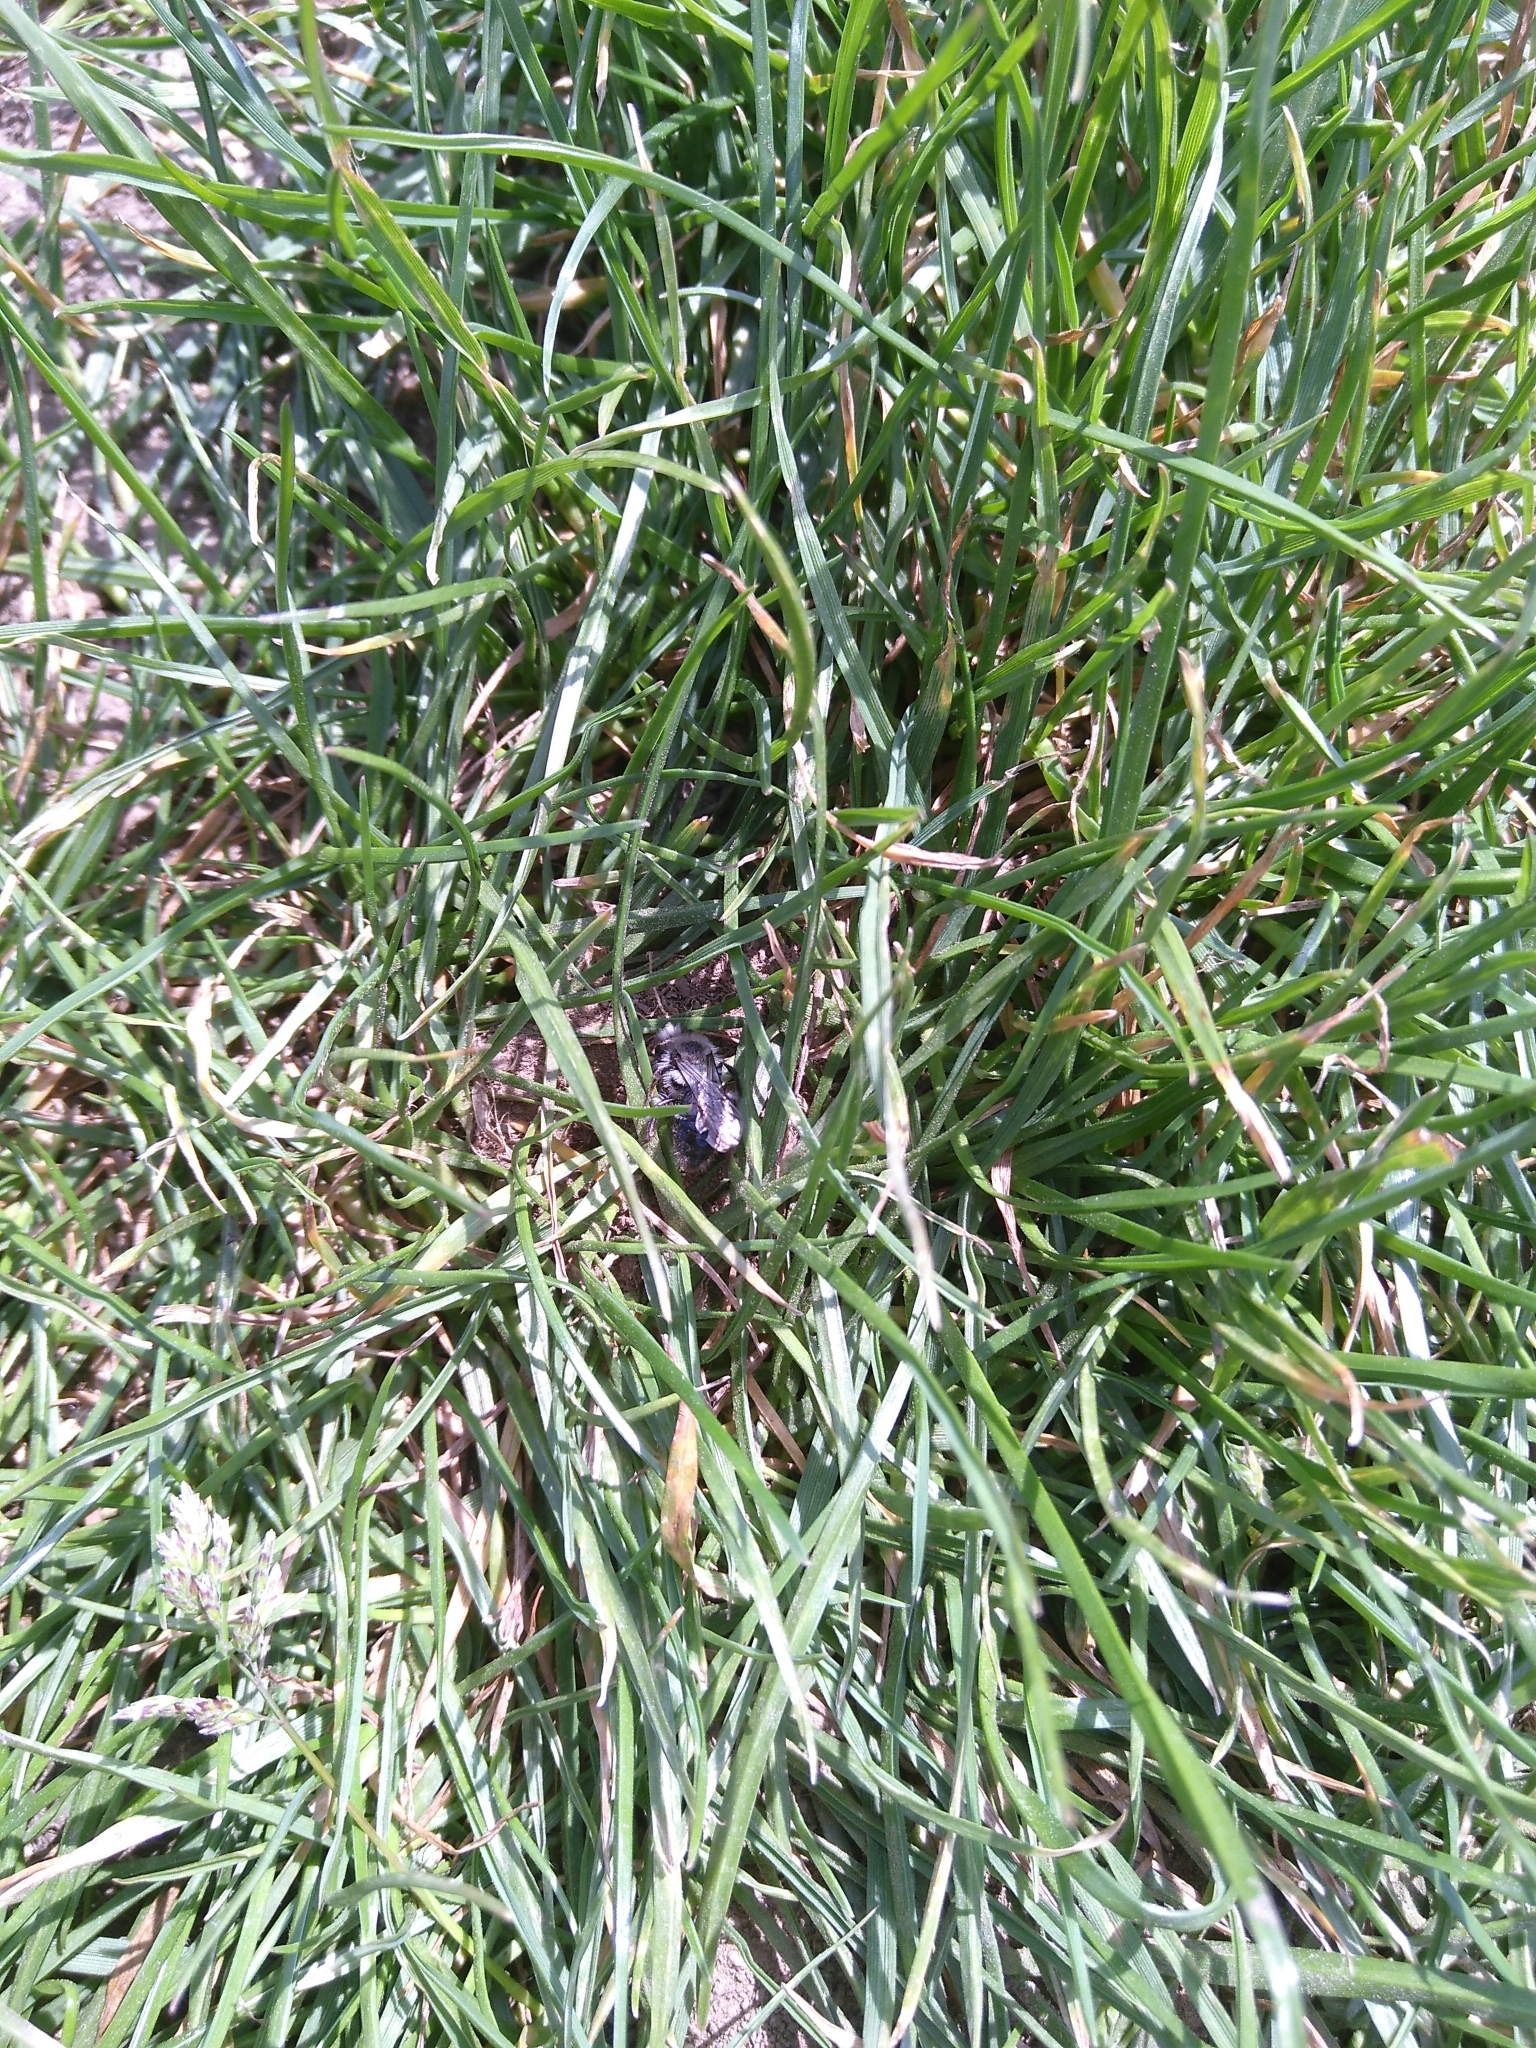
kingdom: Animalia
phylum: Arthropoda
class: Insecta
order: Hymenoptera
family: Andrenidae
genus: Andrena
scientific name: Andrena cineraria
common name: Ashy mining bee
